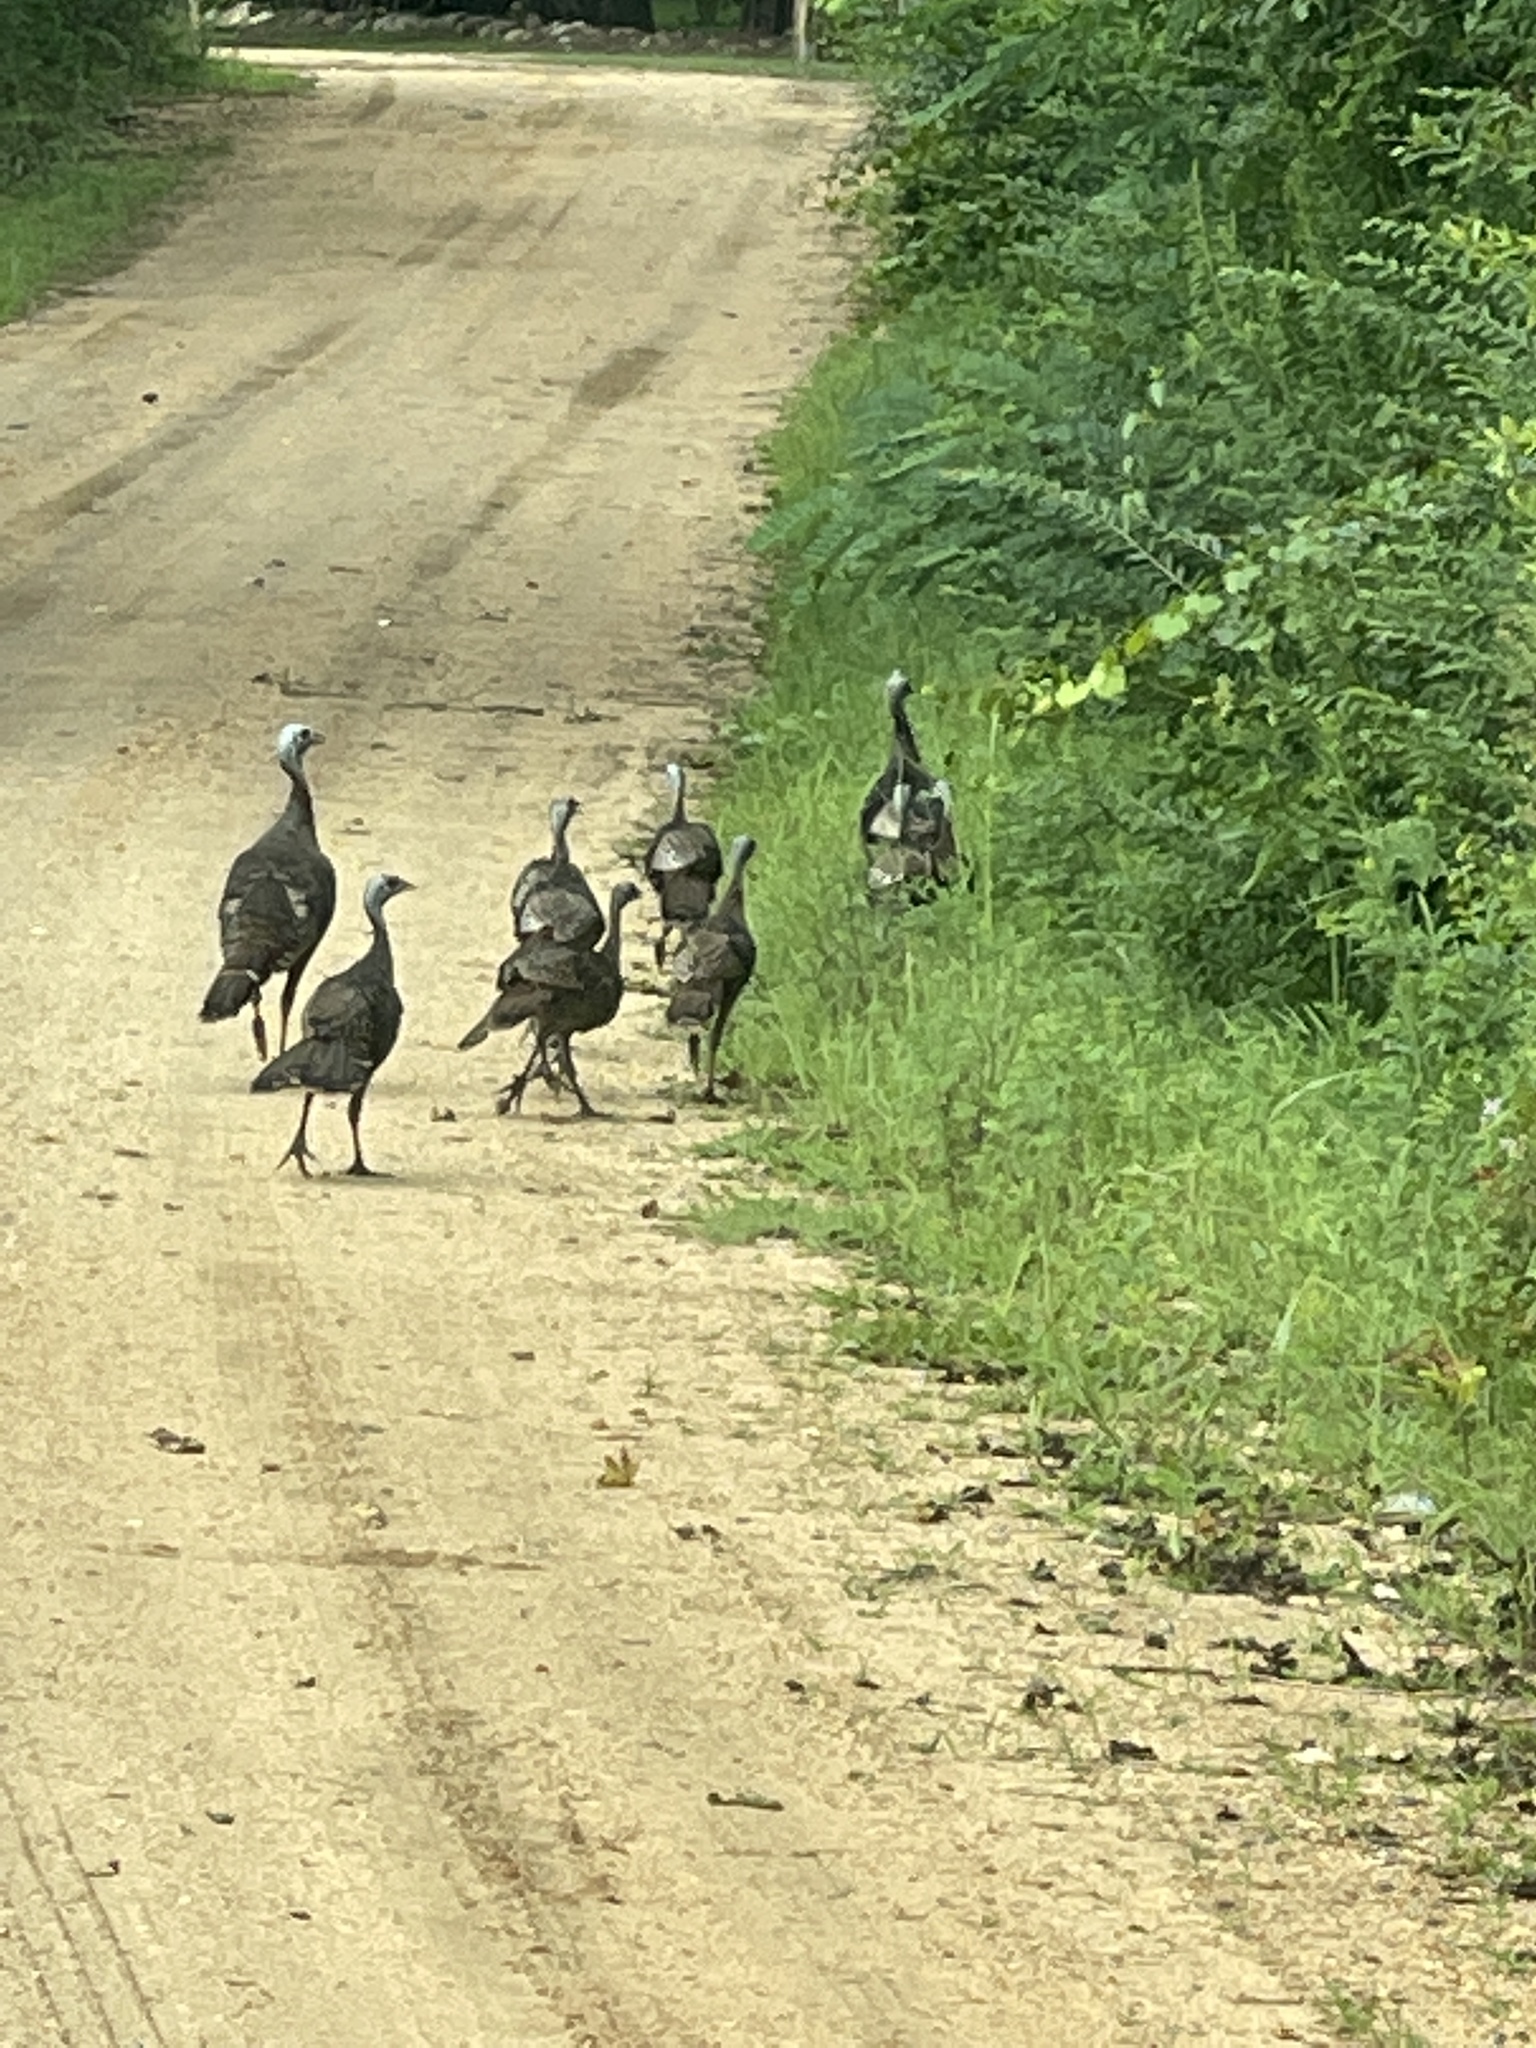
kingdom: Animalia
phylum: Chordata
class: Aves
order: Galliformes
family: Phasianidae
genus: Meleagris
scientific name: Meleagris gallopavo
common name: Wild turkey
